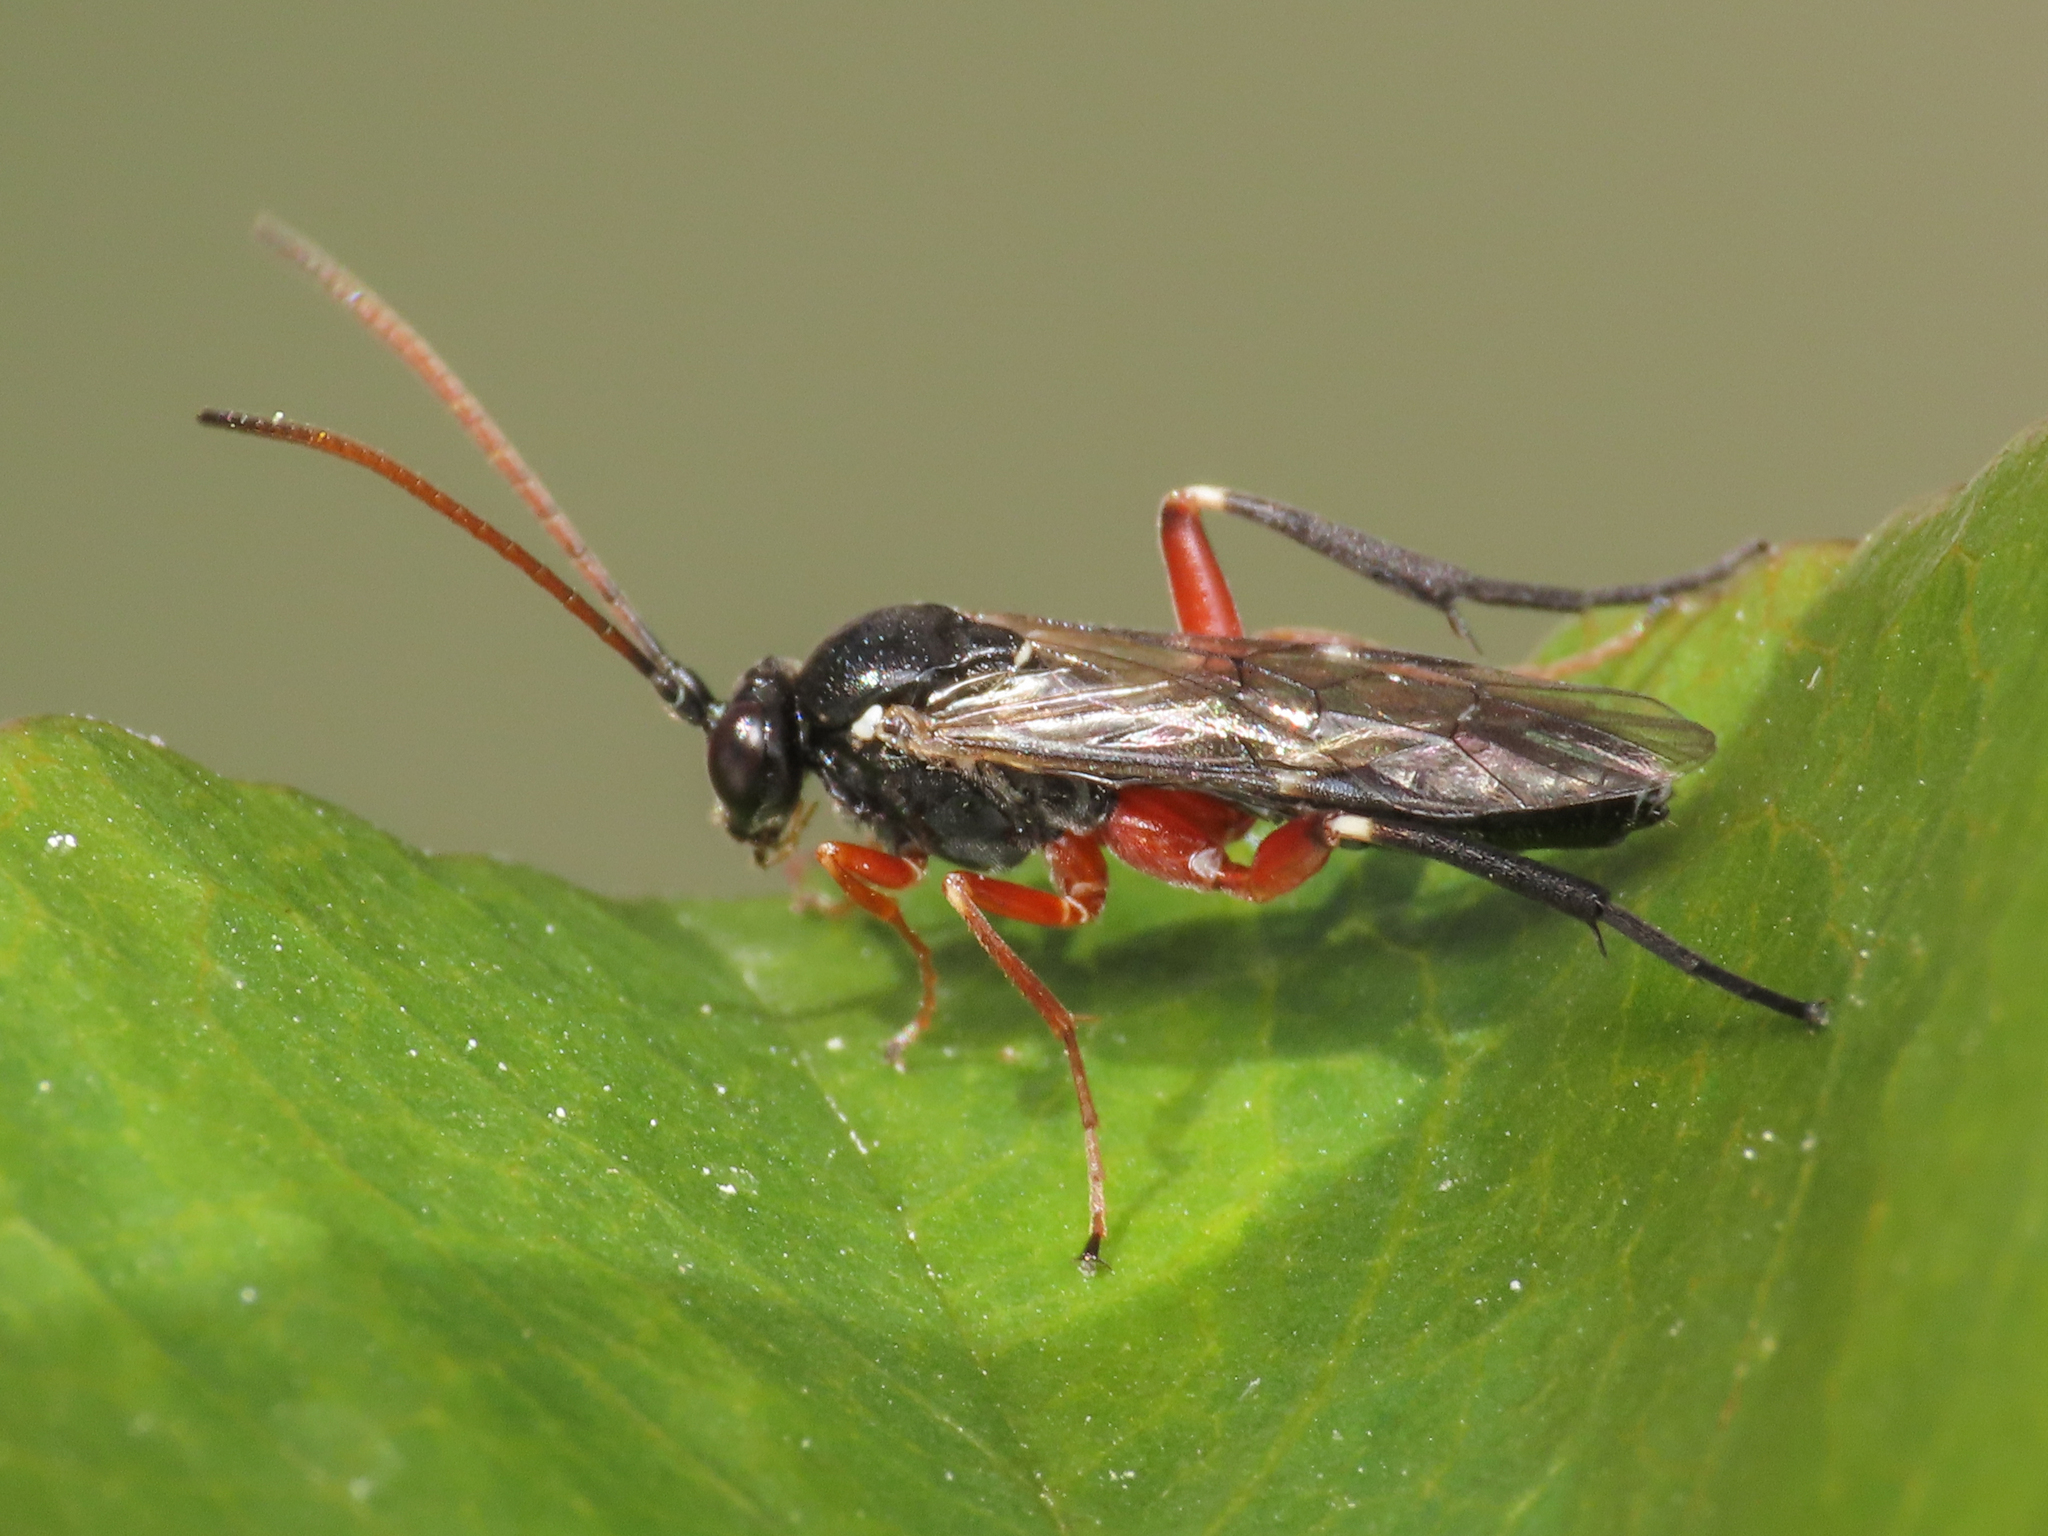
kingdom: Animalia
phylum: Arthropoda
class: Insecta
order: Hymenoptera
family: Ichneumonidae
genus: Enizemum
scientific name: Enizemum ornatum
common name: Ichneumonid wasp
